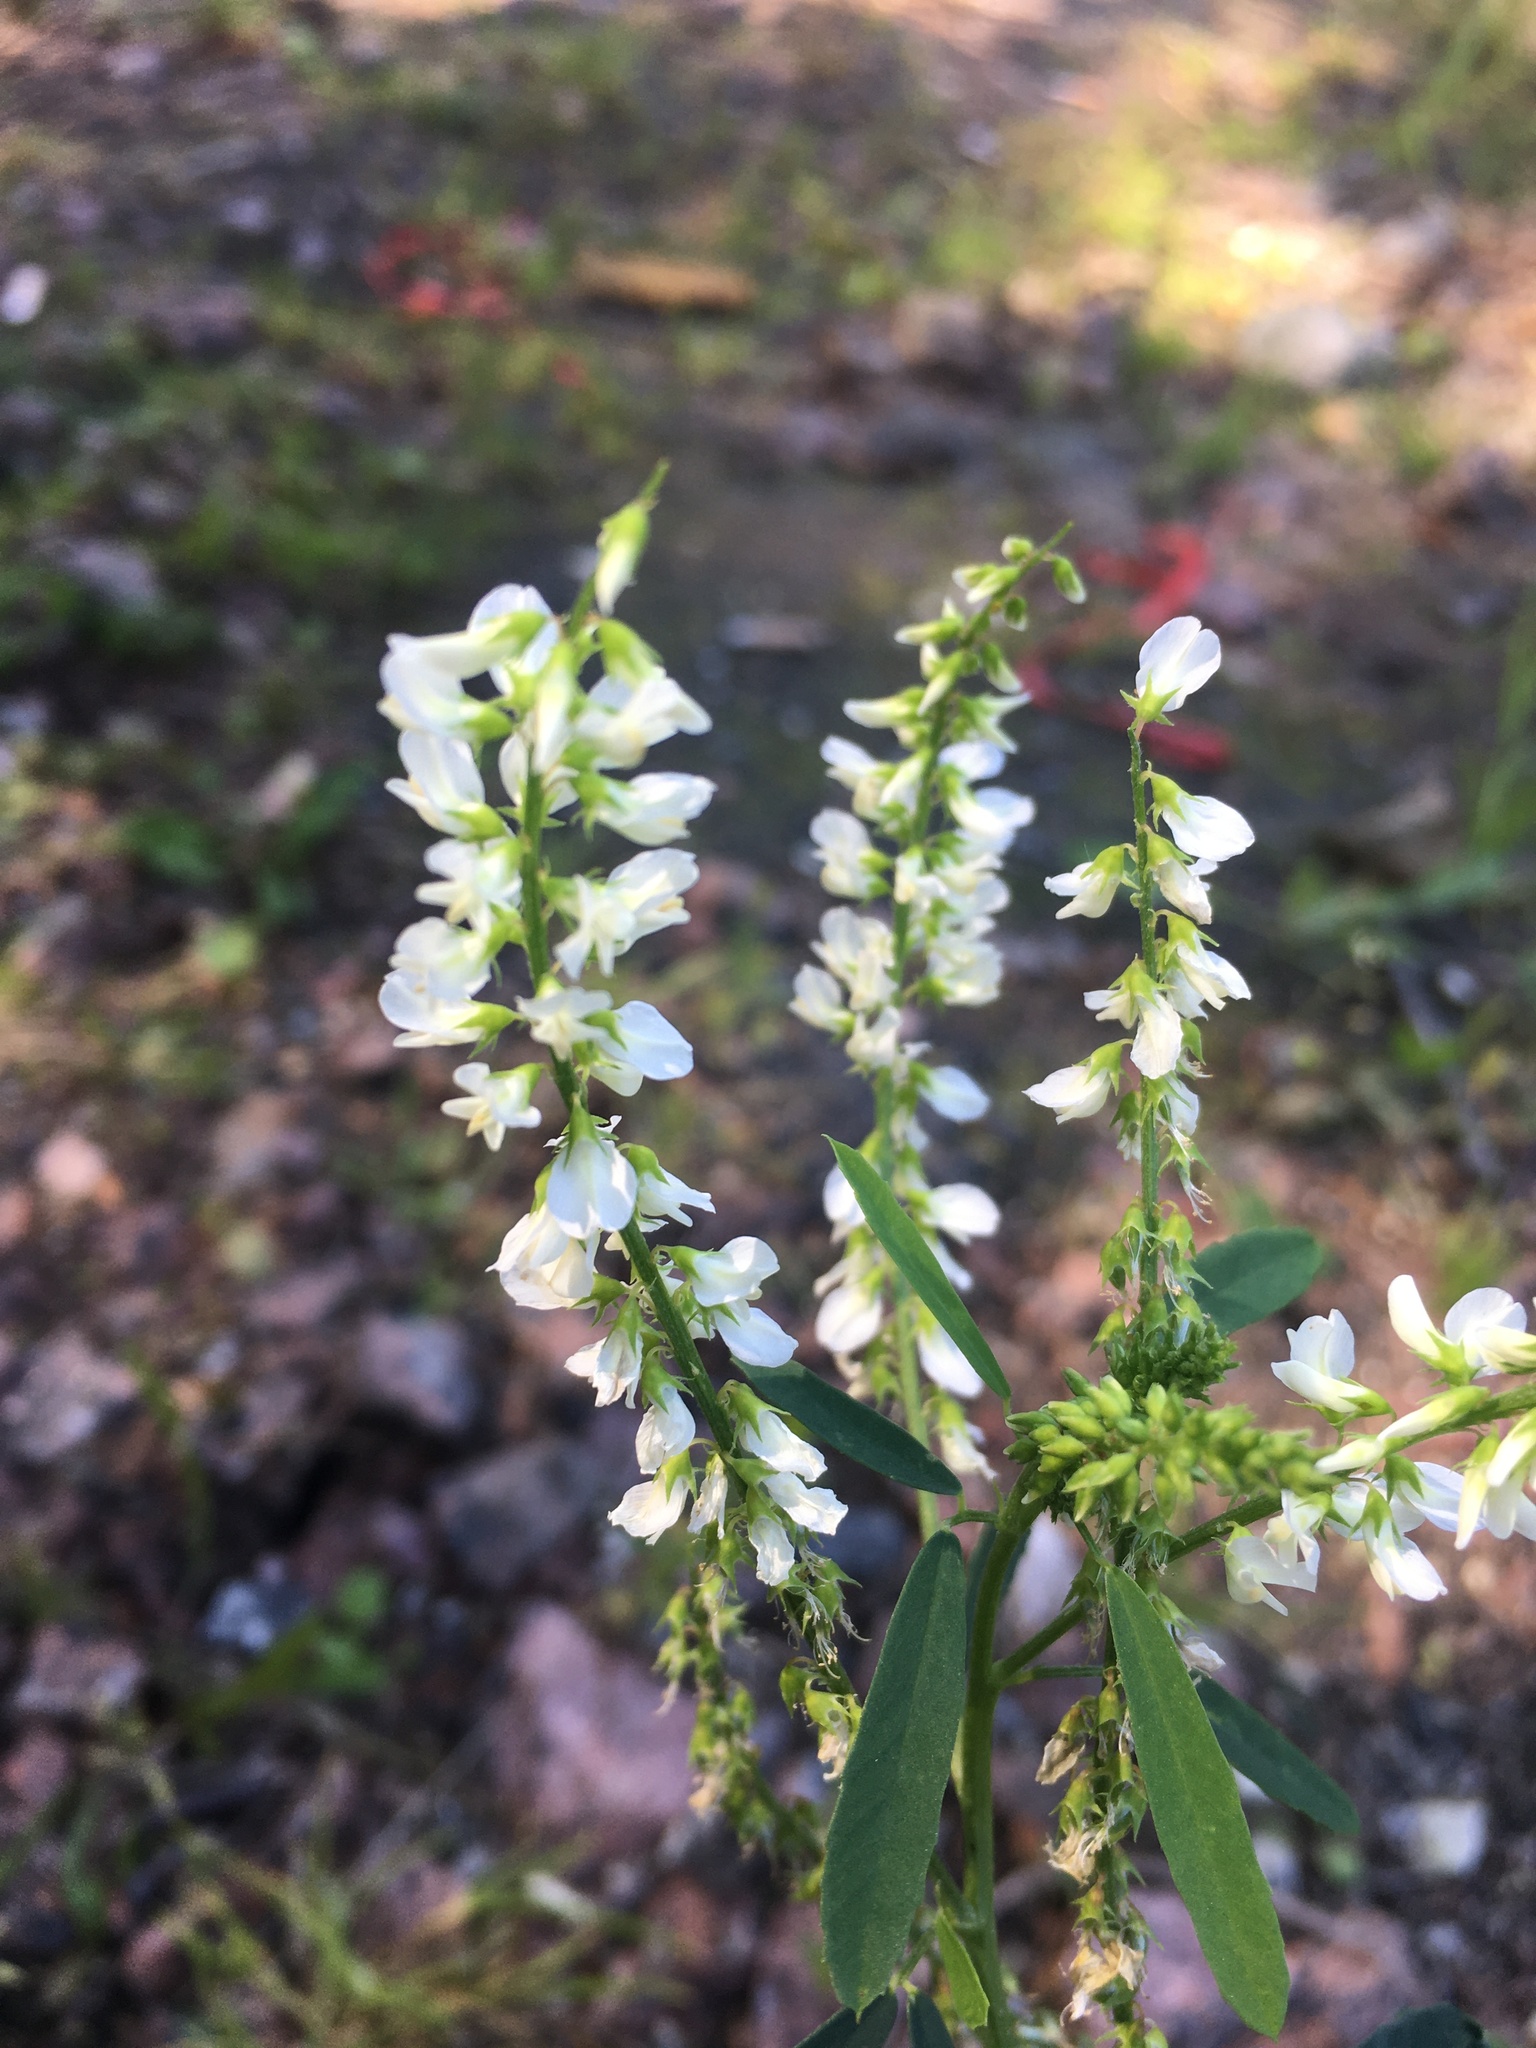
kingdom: Plantae
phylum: Tracheophyta
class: Magnoliopsida
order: Fabales
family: Fabaceae
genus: Melilotus
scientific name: Melilotus albus
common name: White melilot
